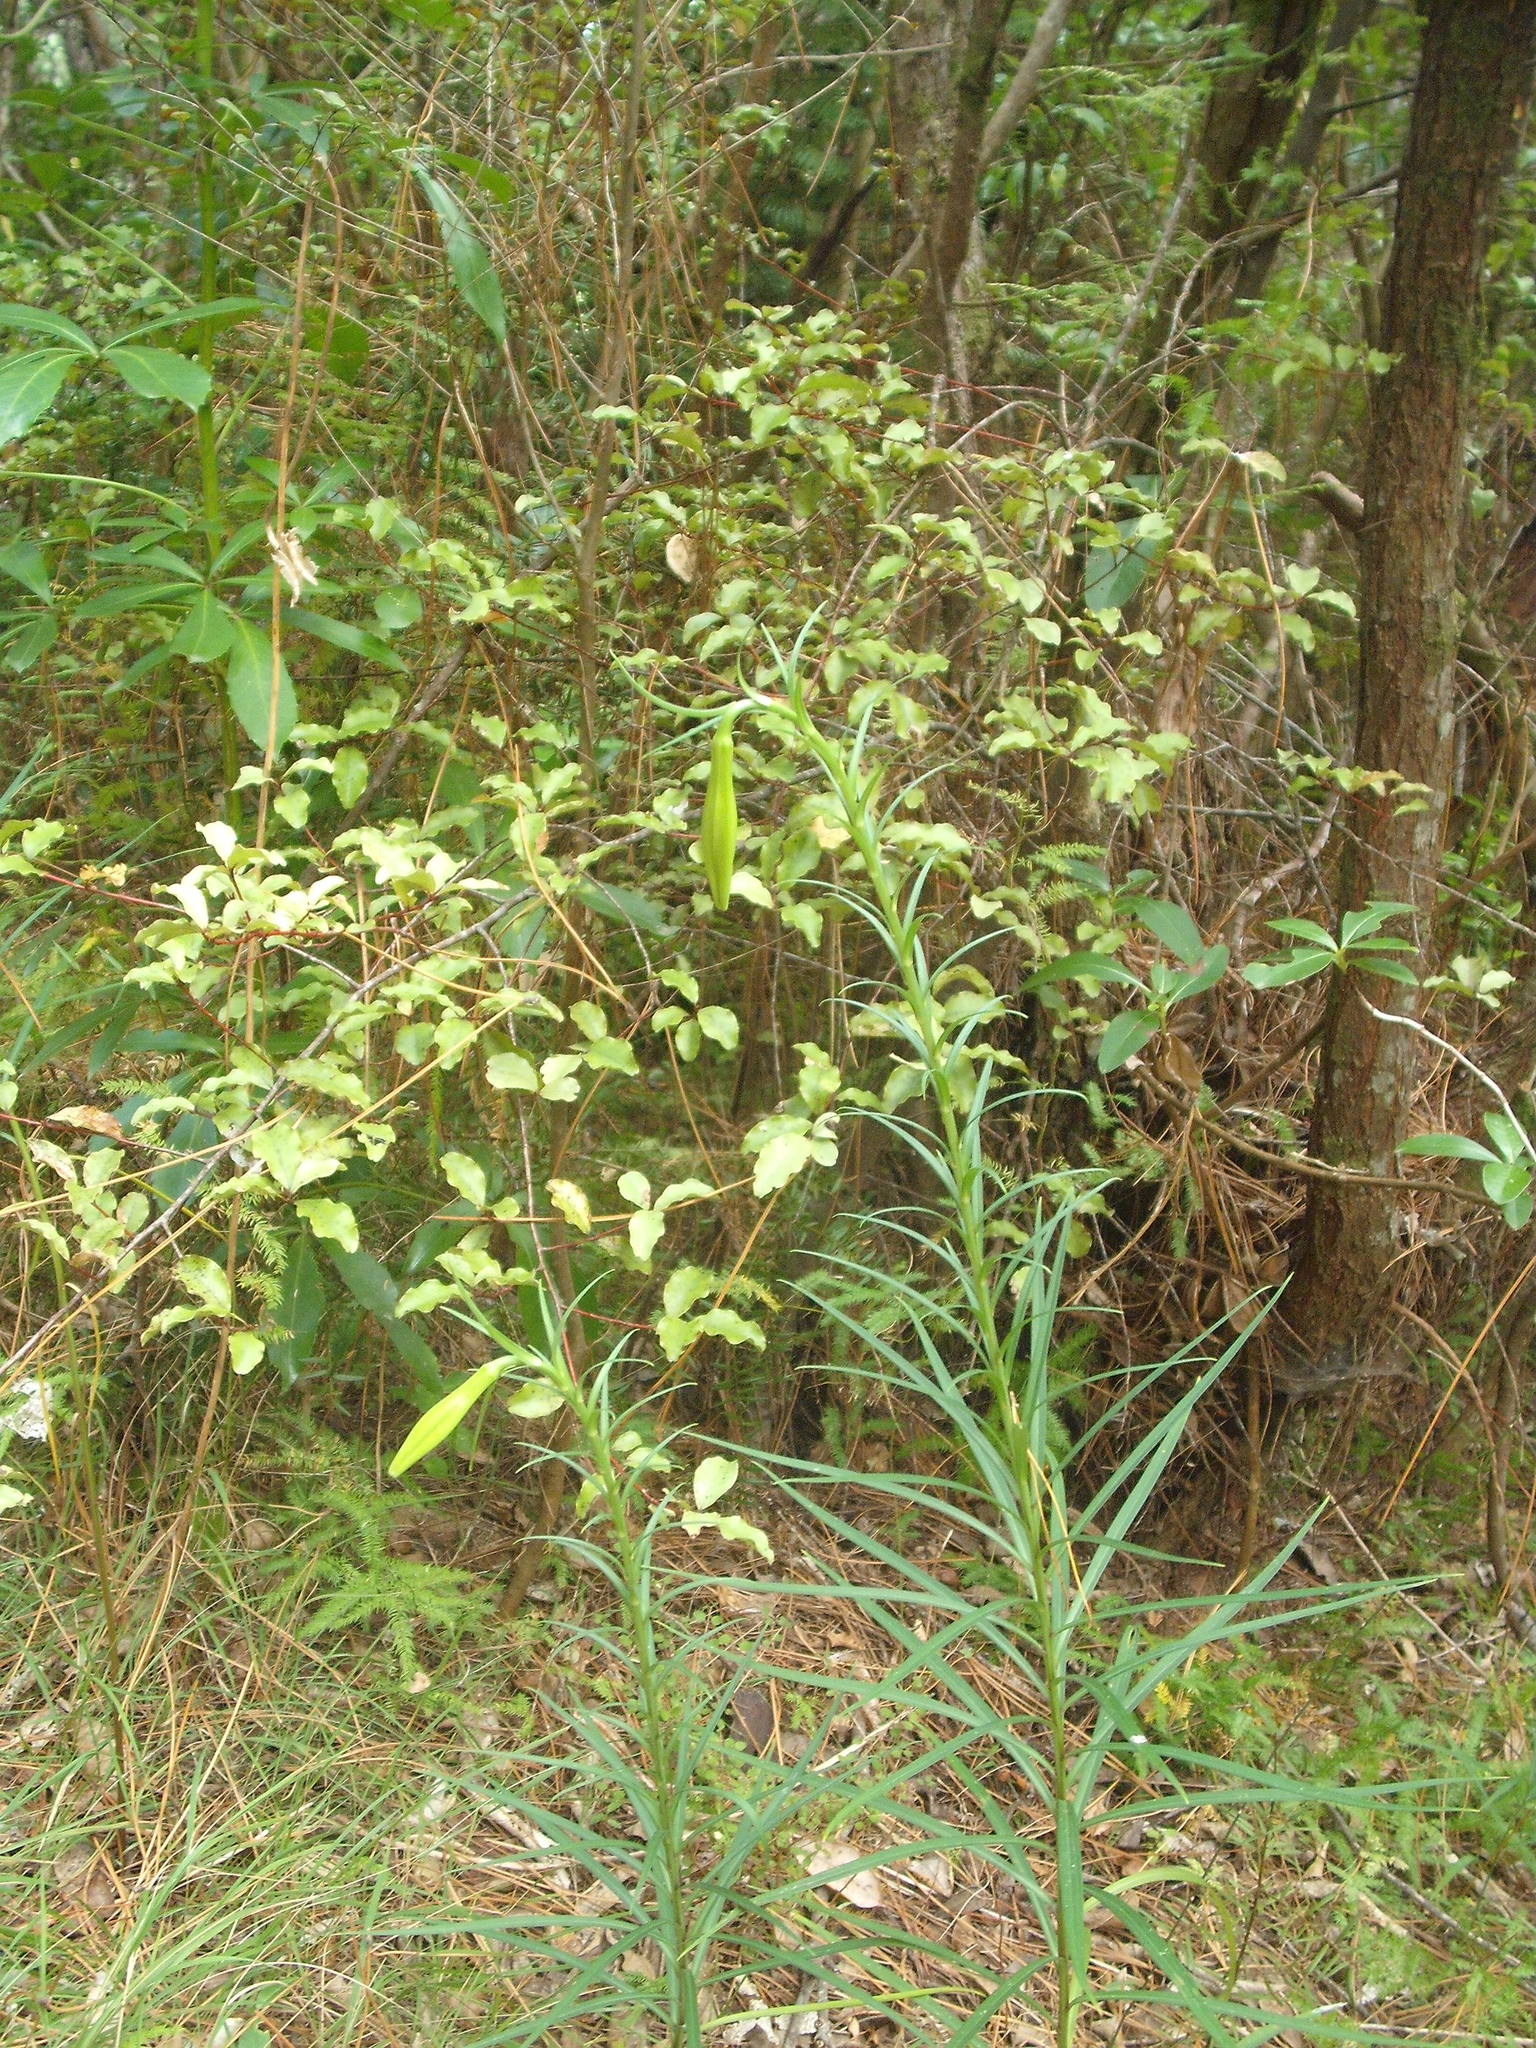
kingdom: Plantae
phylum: Tracheophyta
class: Liliopsida
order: Liliales
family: Liliaceae
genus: Lilium
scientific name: Lilium formosanum
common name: Formosa lily
